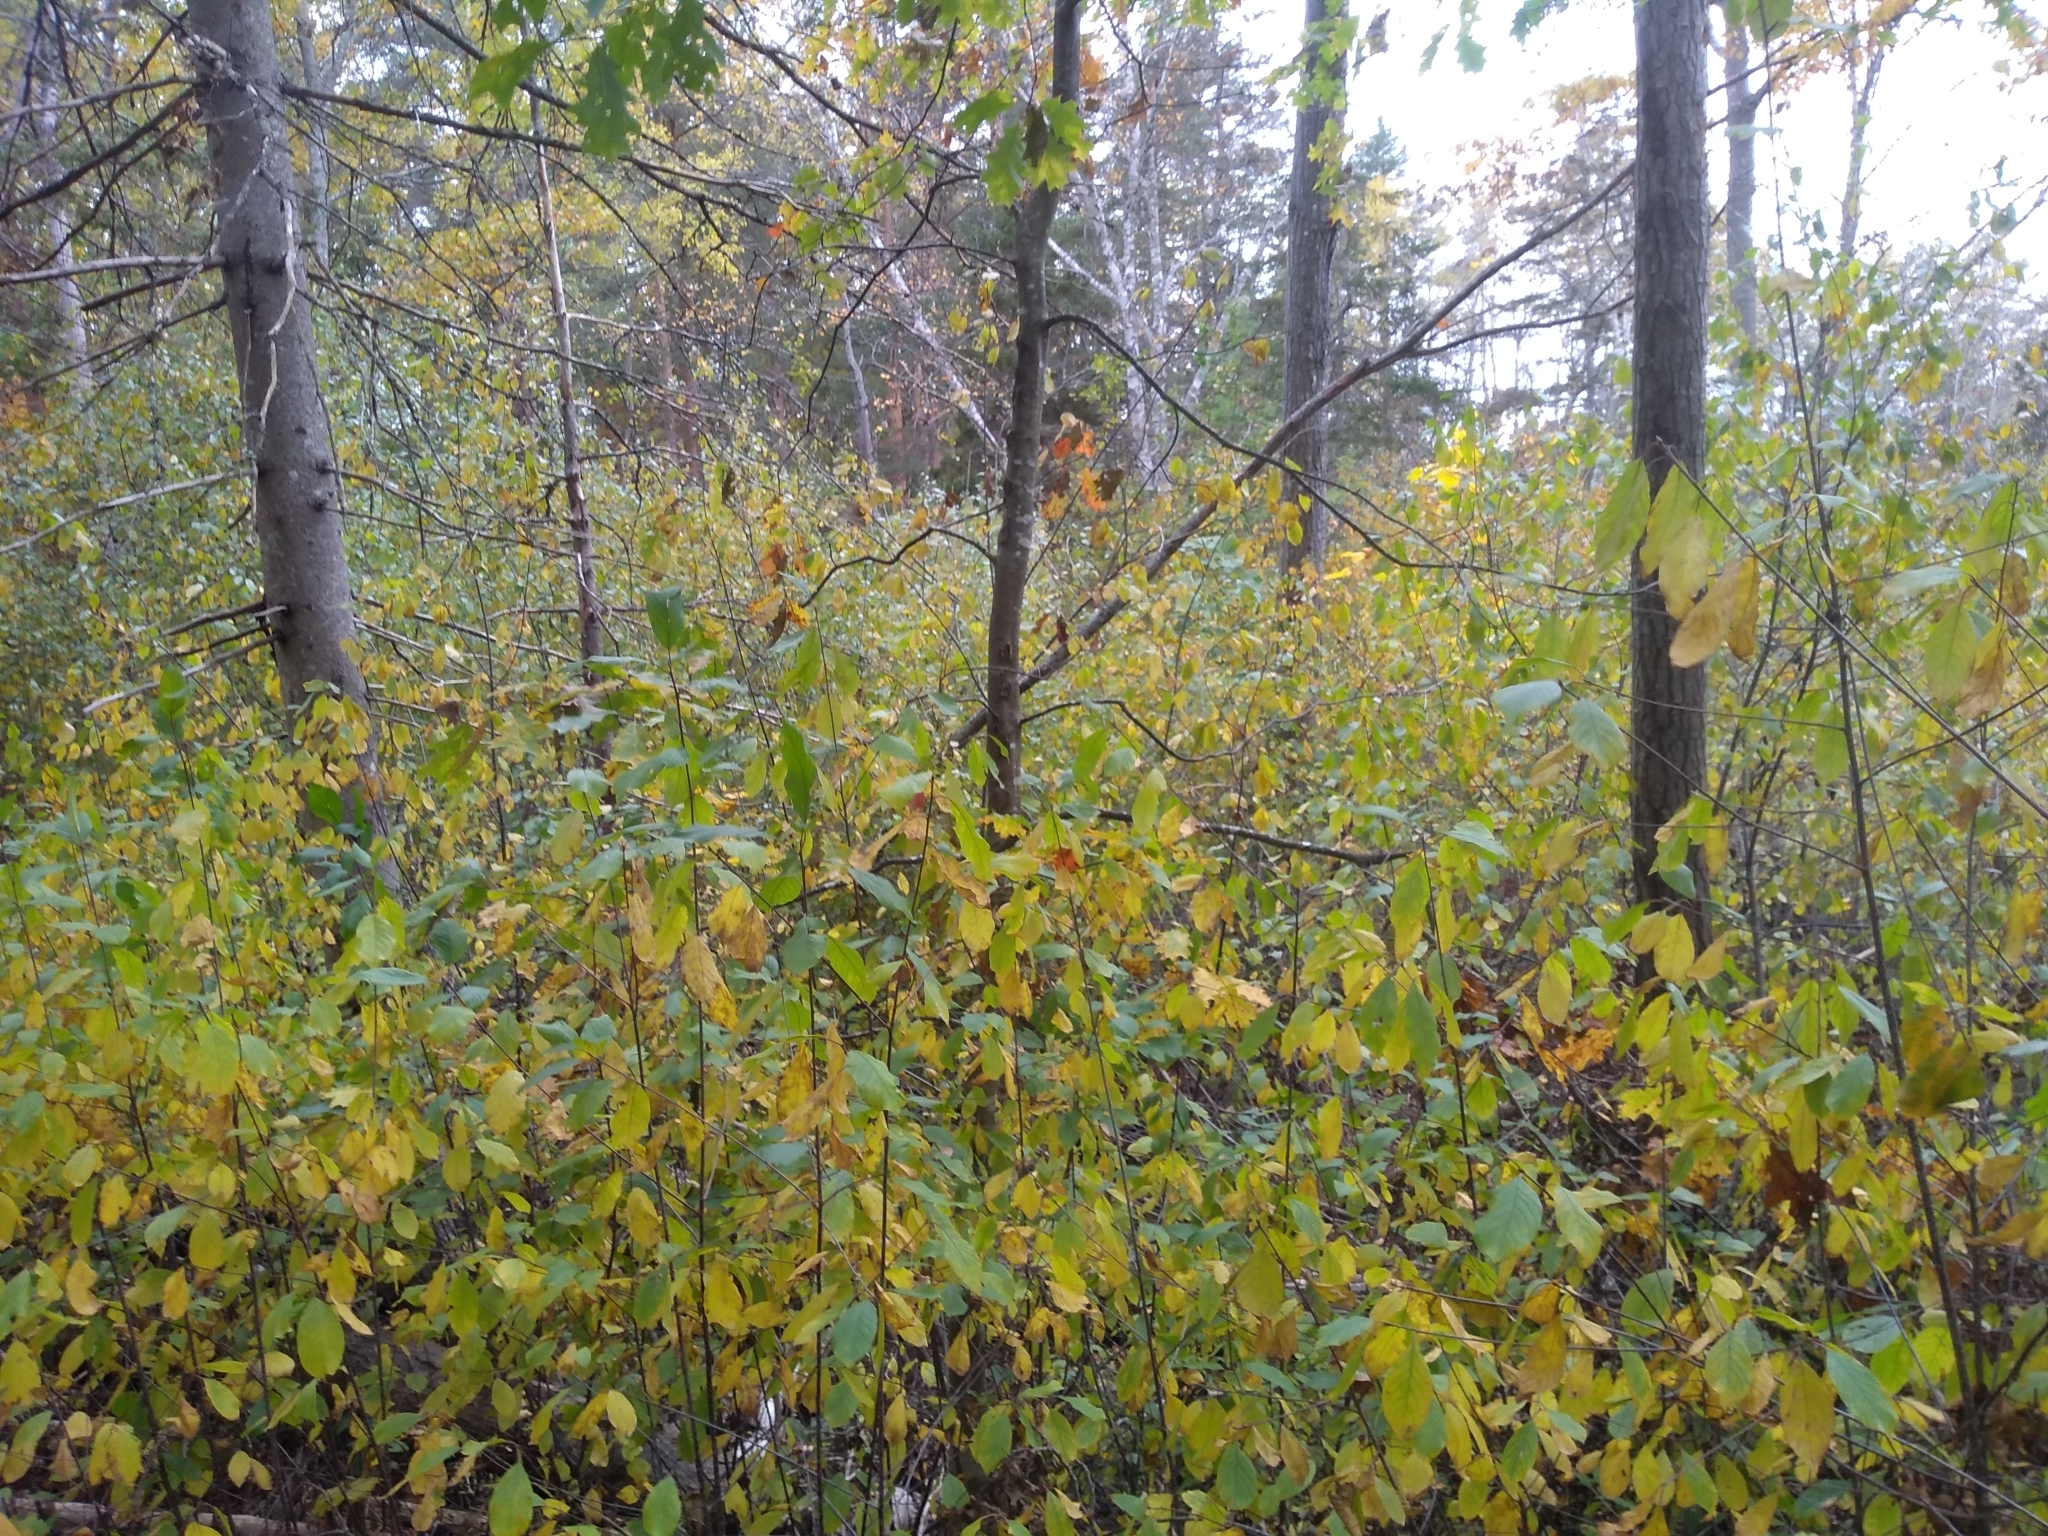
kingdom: Plantae
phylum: Tracheophyta
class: Magnoliopsida
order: Rosales
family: Rhamnaceae
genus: Frangula
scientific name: Frangula alnus
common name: Alder buckthorn
